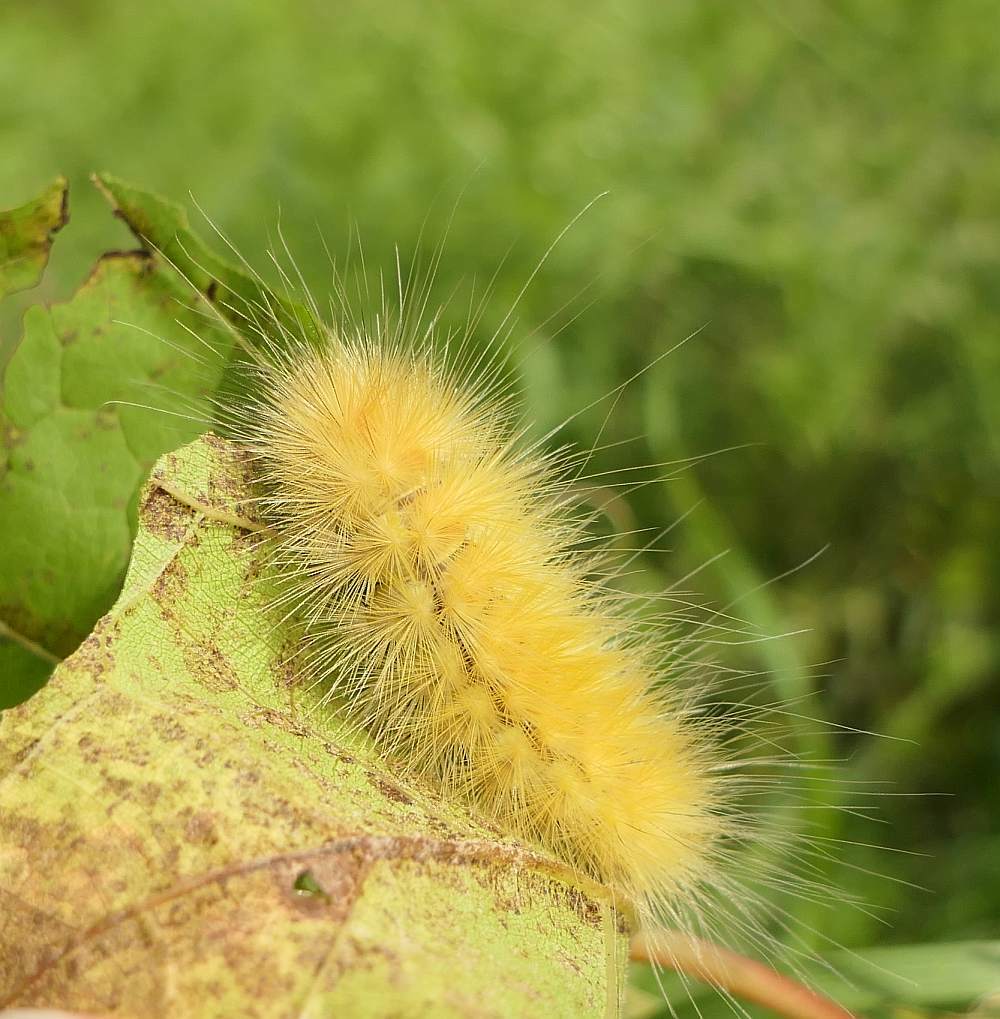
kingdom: Animalia
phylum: Arthropoda
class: Insecta
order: Lepidoptera
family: Erebidae
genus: Spilosoma
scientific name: Spilosoma virginica
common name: Virginia tiger moth
